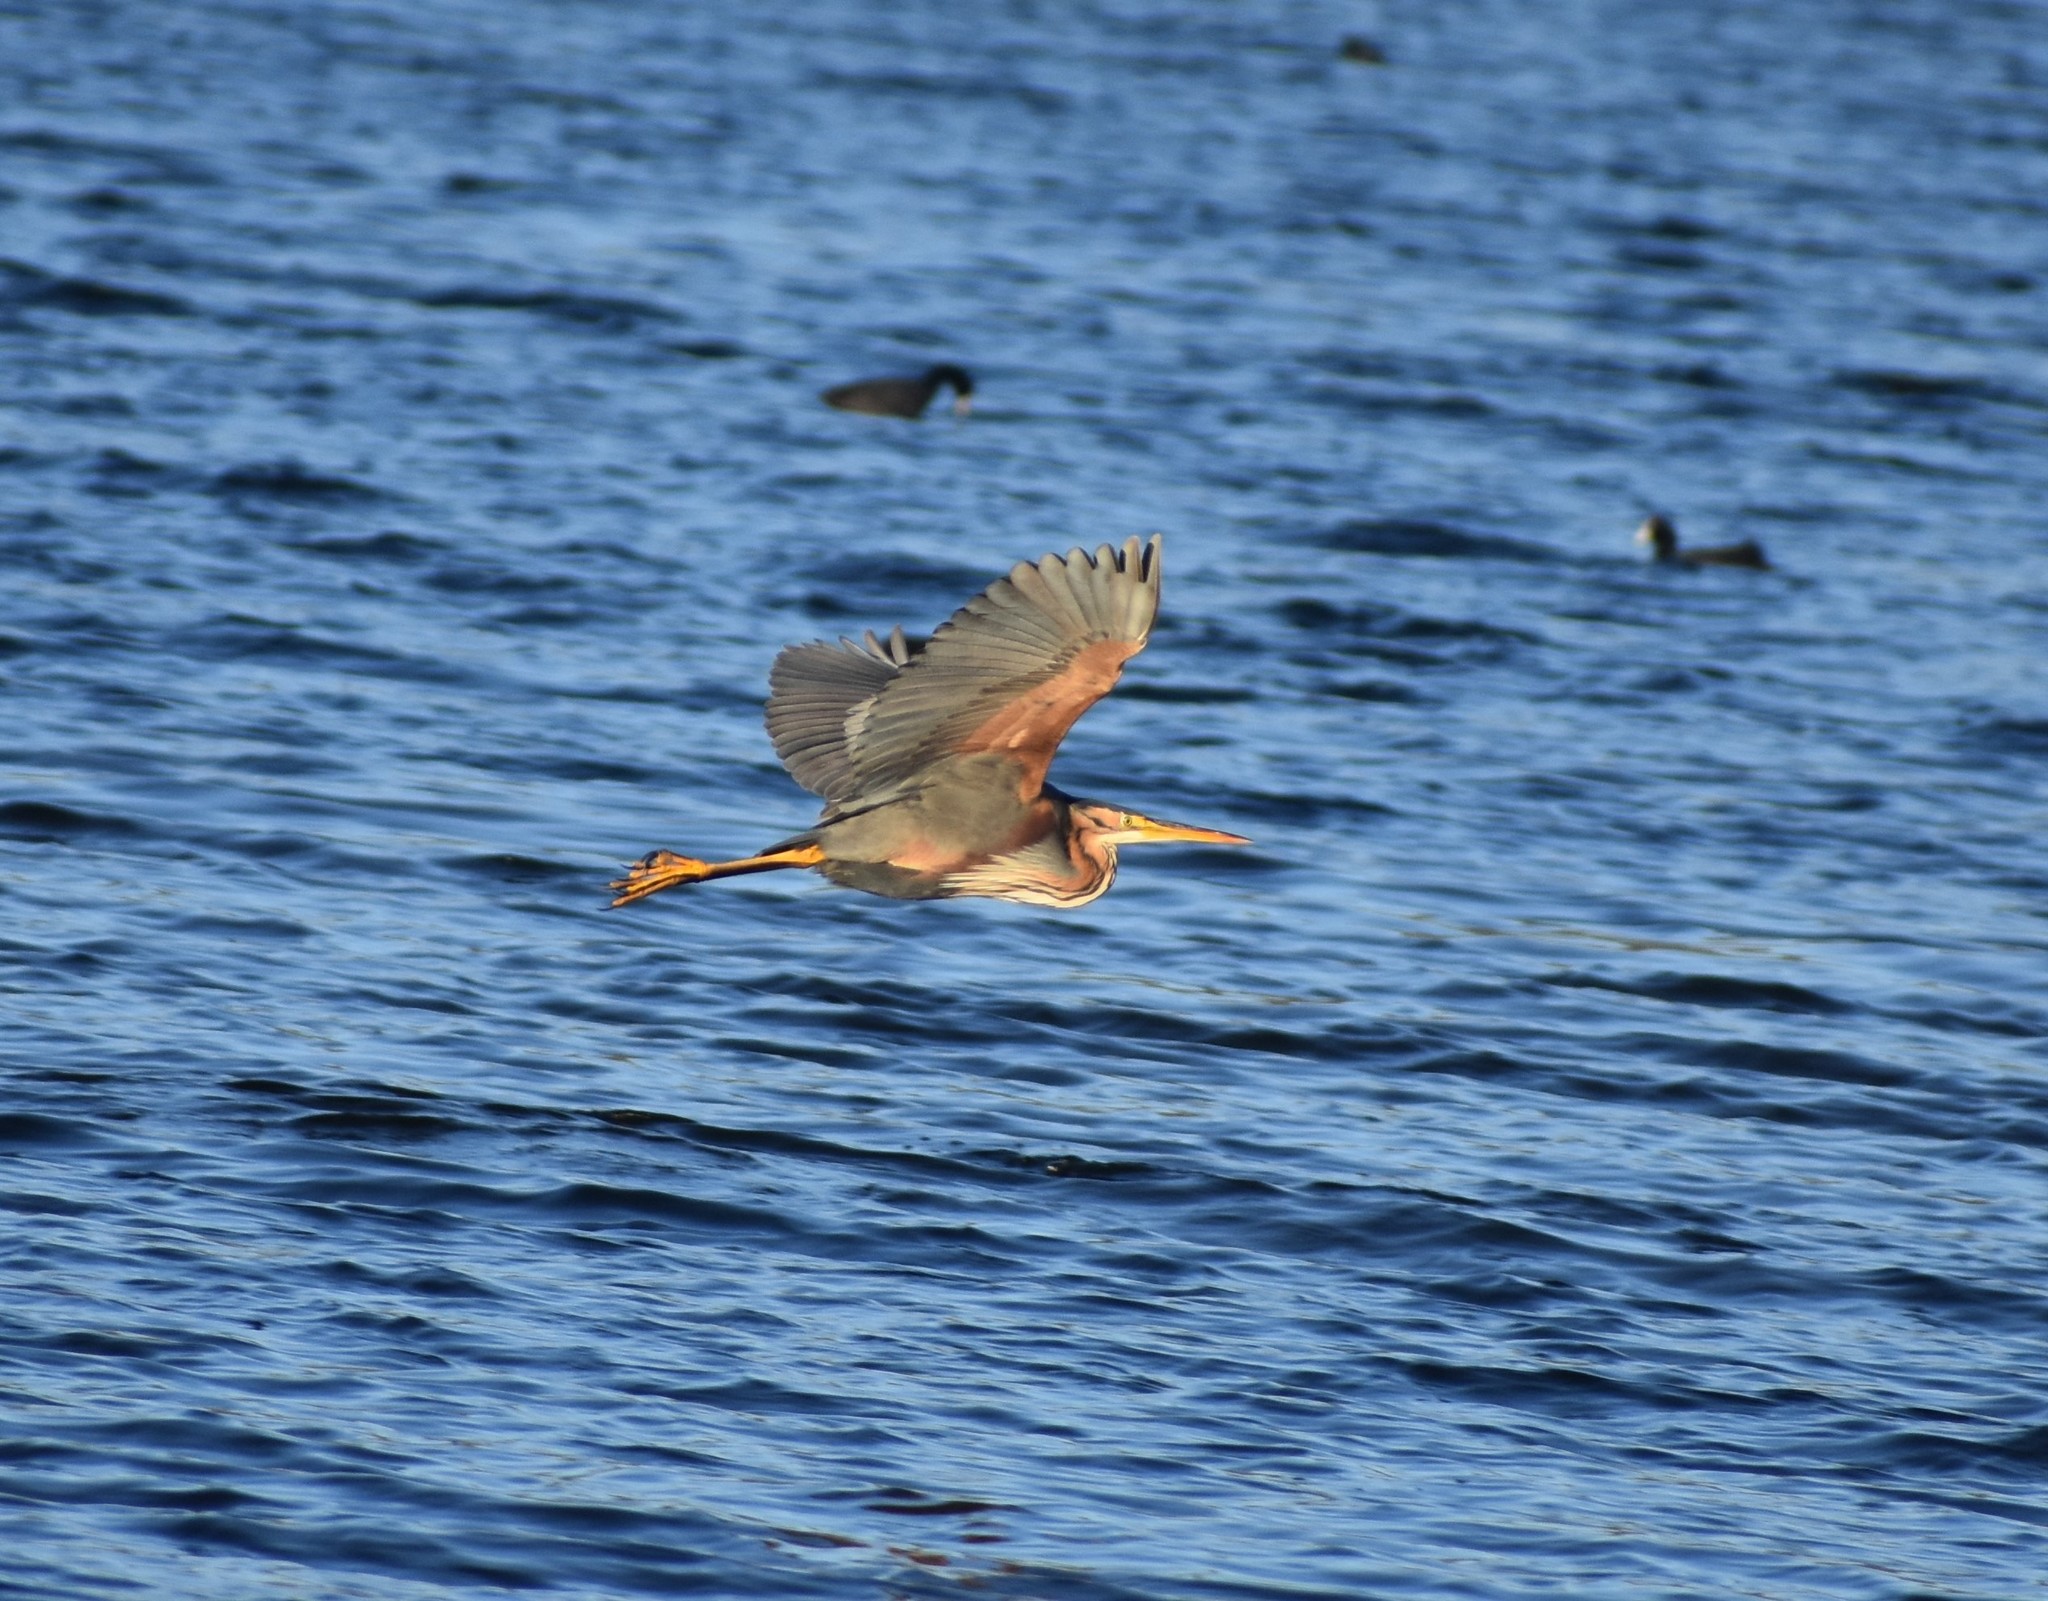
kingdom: Animalia
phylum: Chordata
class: Aves
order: Pelecaniformes
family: Ardeidae
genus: Ardea
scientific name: Ardea purpurea
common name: Purple heron
